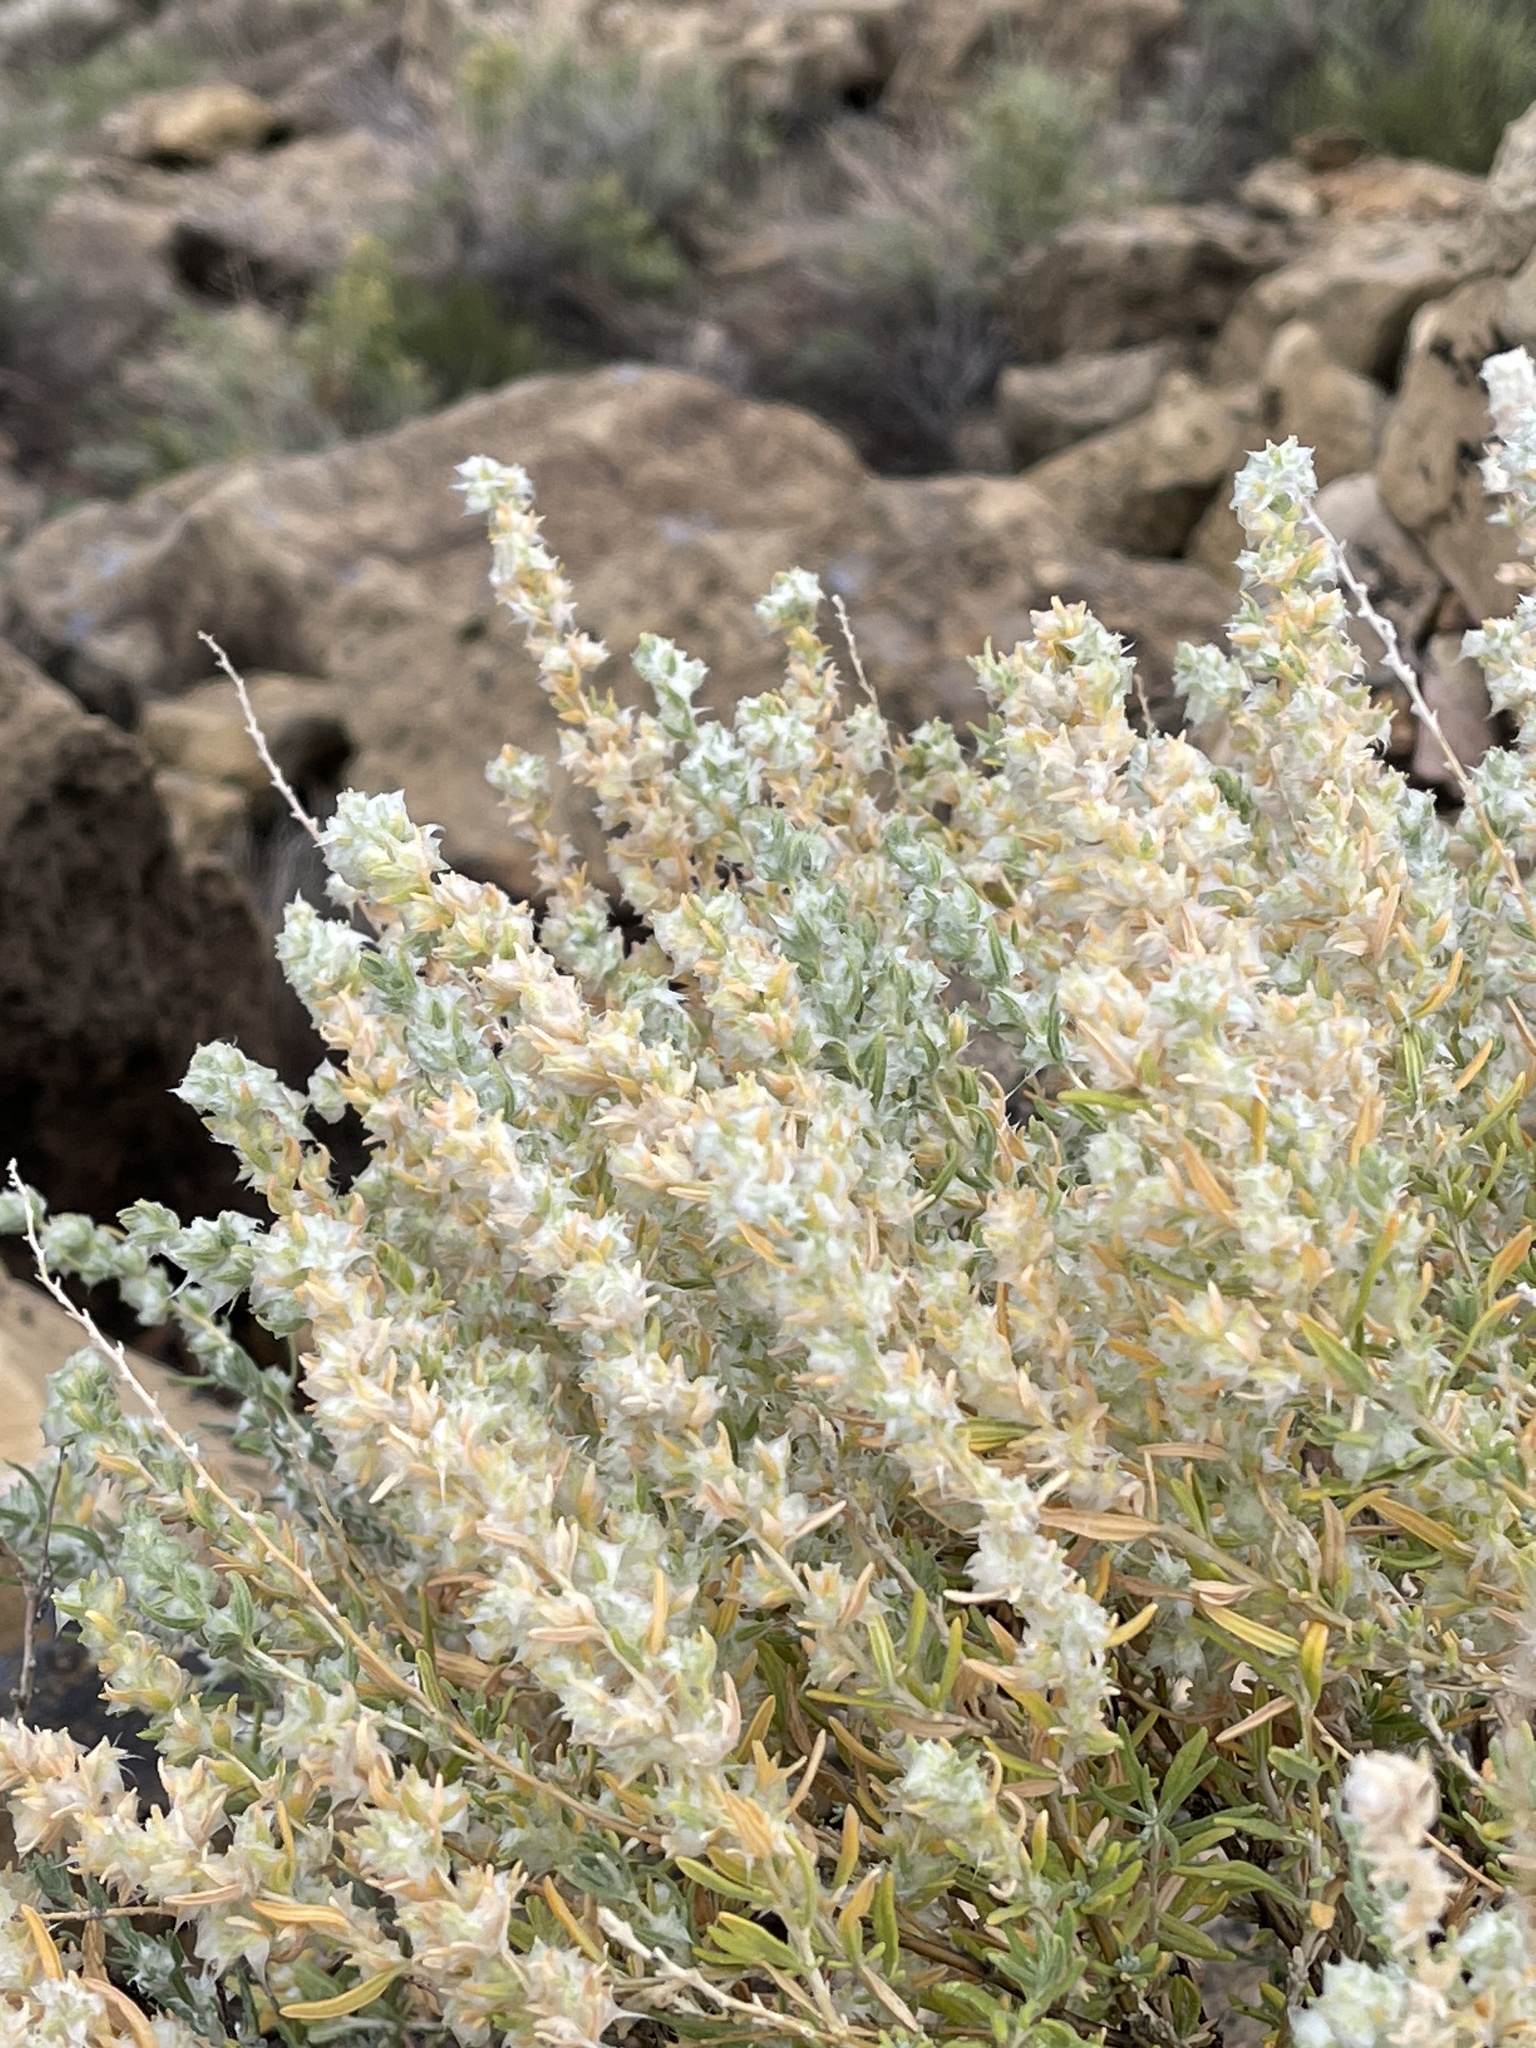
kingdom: Plantae
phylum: Tracheophyta
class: Magnoliopsida
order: Caryophyllales
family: Amaranthaceae
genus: Krascheninnikovia
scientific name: Krascheninnikovia lanata
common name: Winterfat
